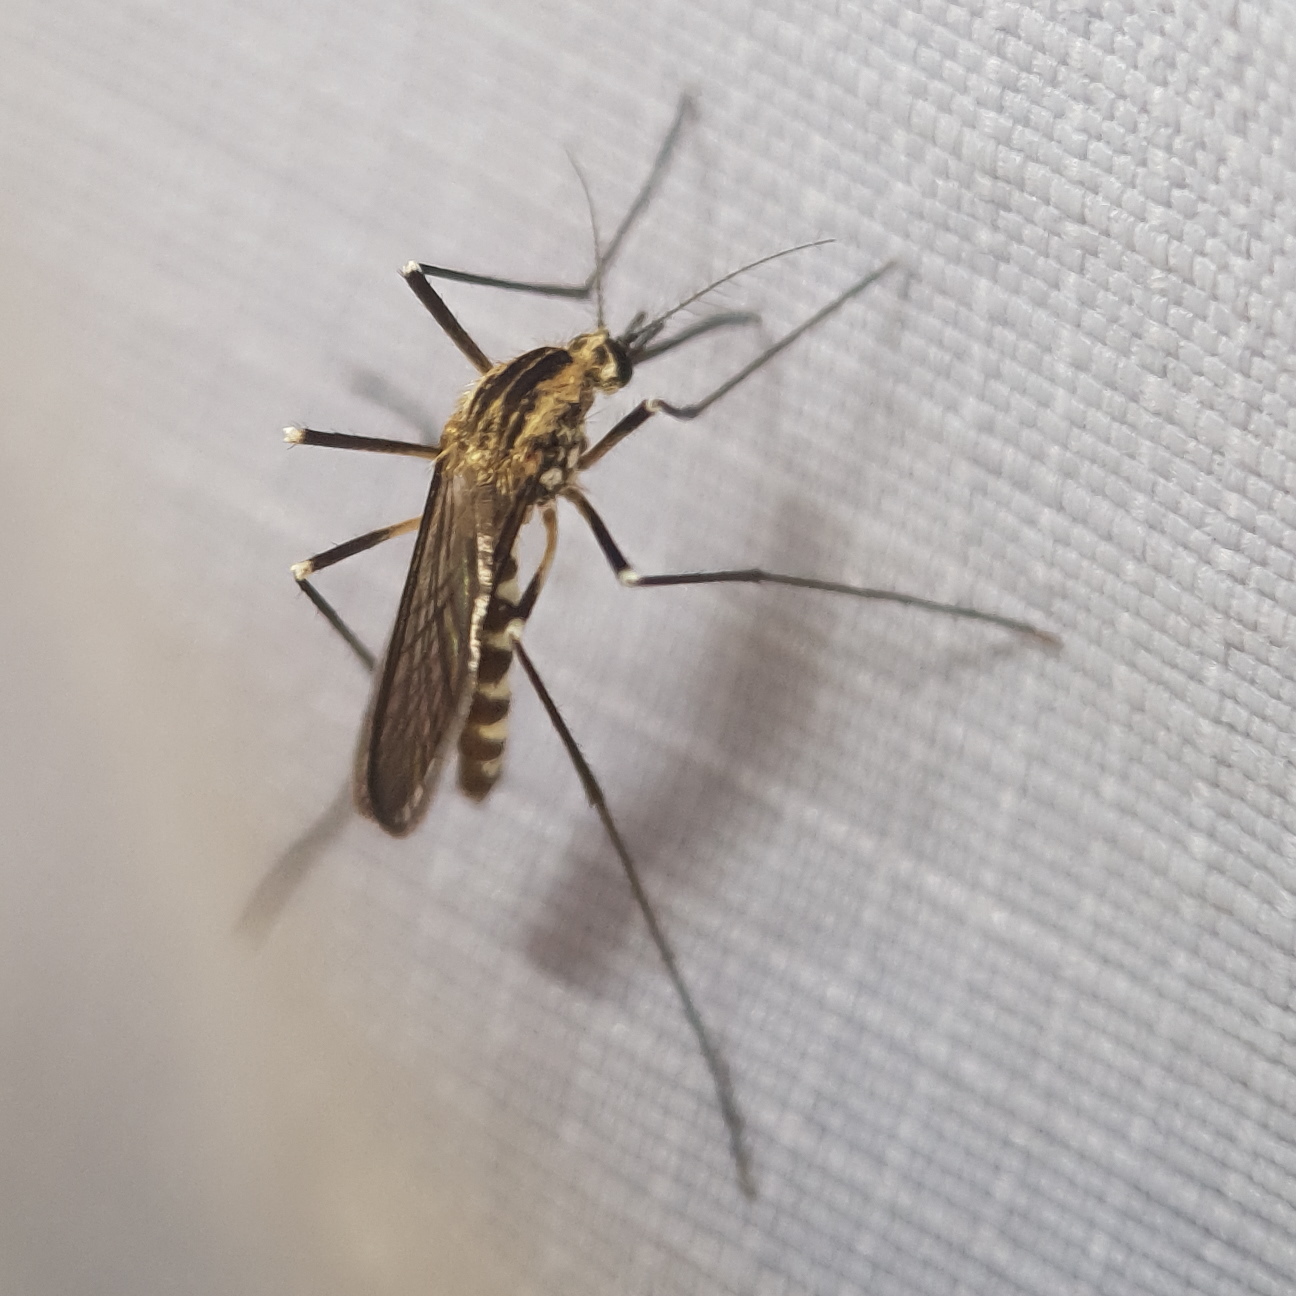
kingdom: Animalia
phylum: Arthropoda
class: Insecta
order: Diptera
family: Culicidae
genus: Aedes
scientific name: Aedes geniculatus
